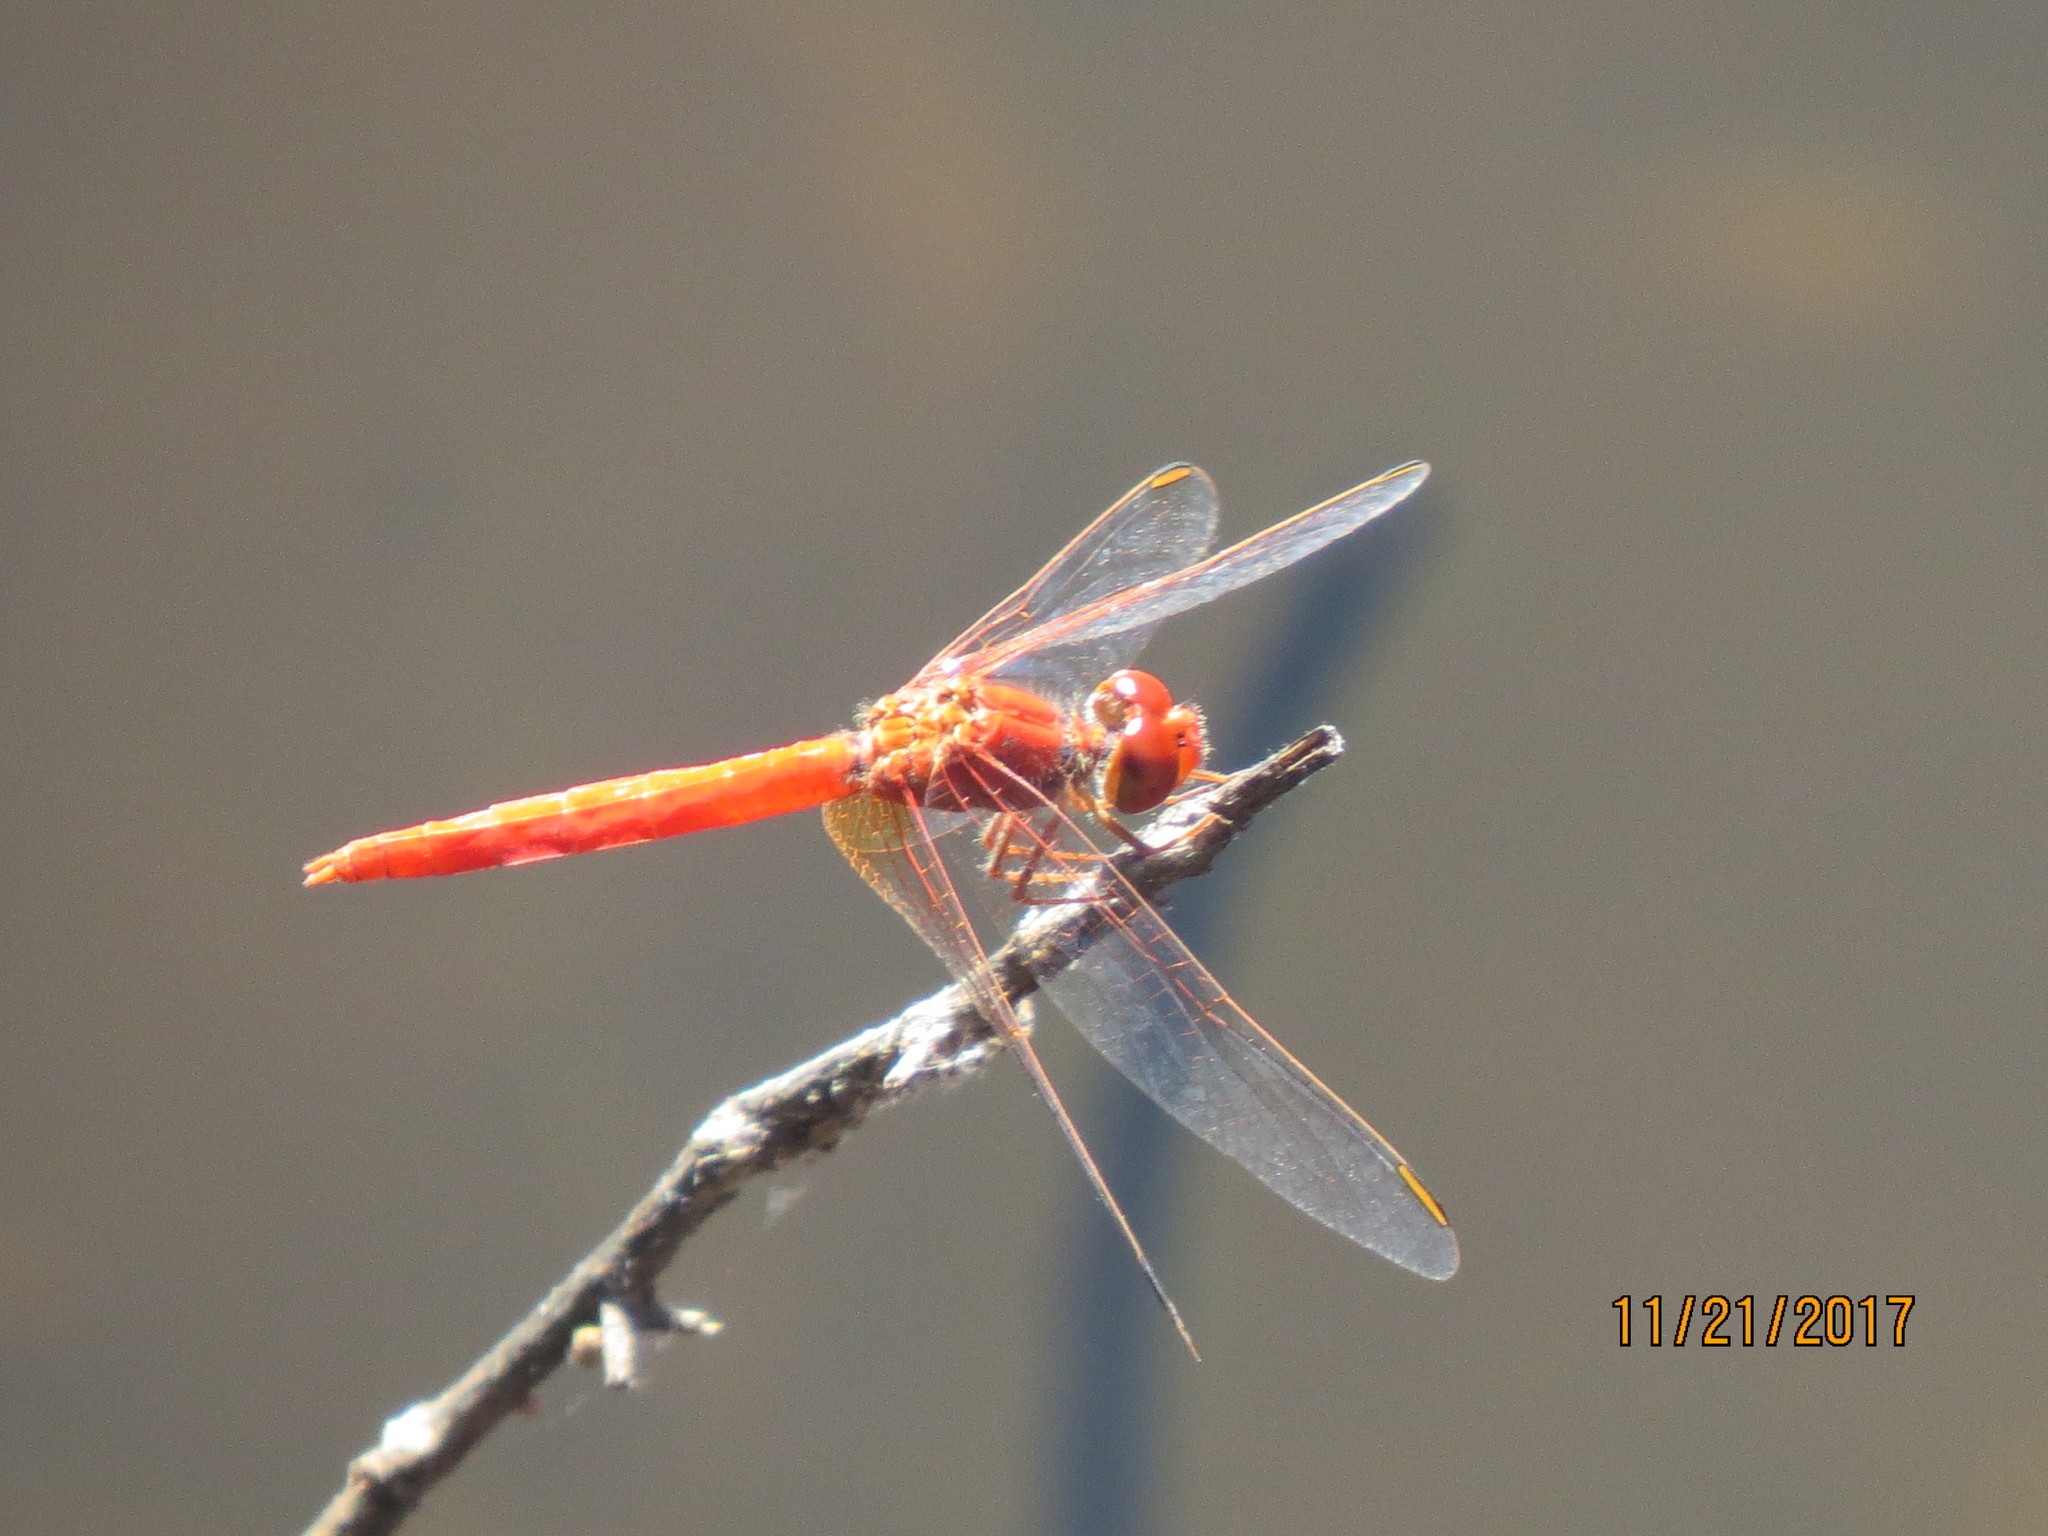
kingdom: Animalia
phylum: Arthropoda
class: Insecta
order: Odonata
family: Libellulidae
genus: Diplacodes
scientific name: Diplacodes haematodes
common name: Scarlet percher
